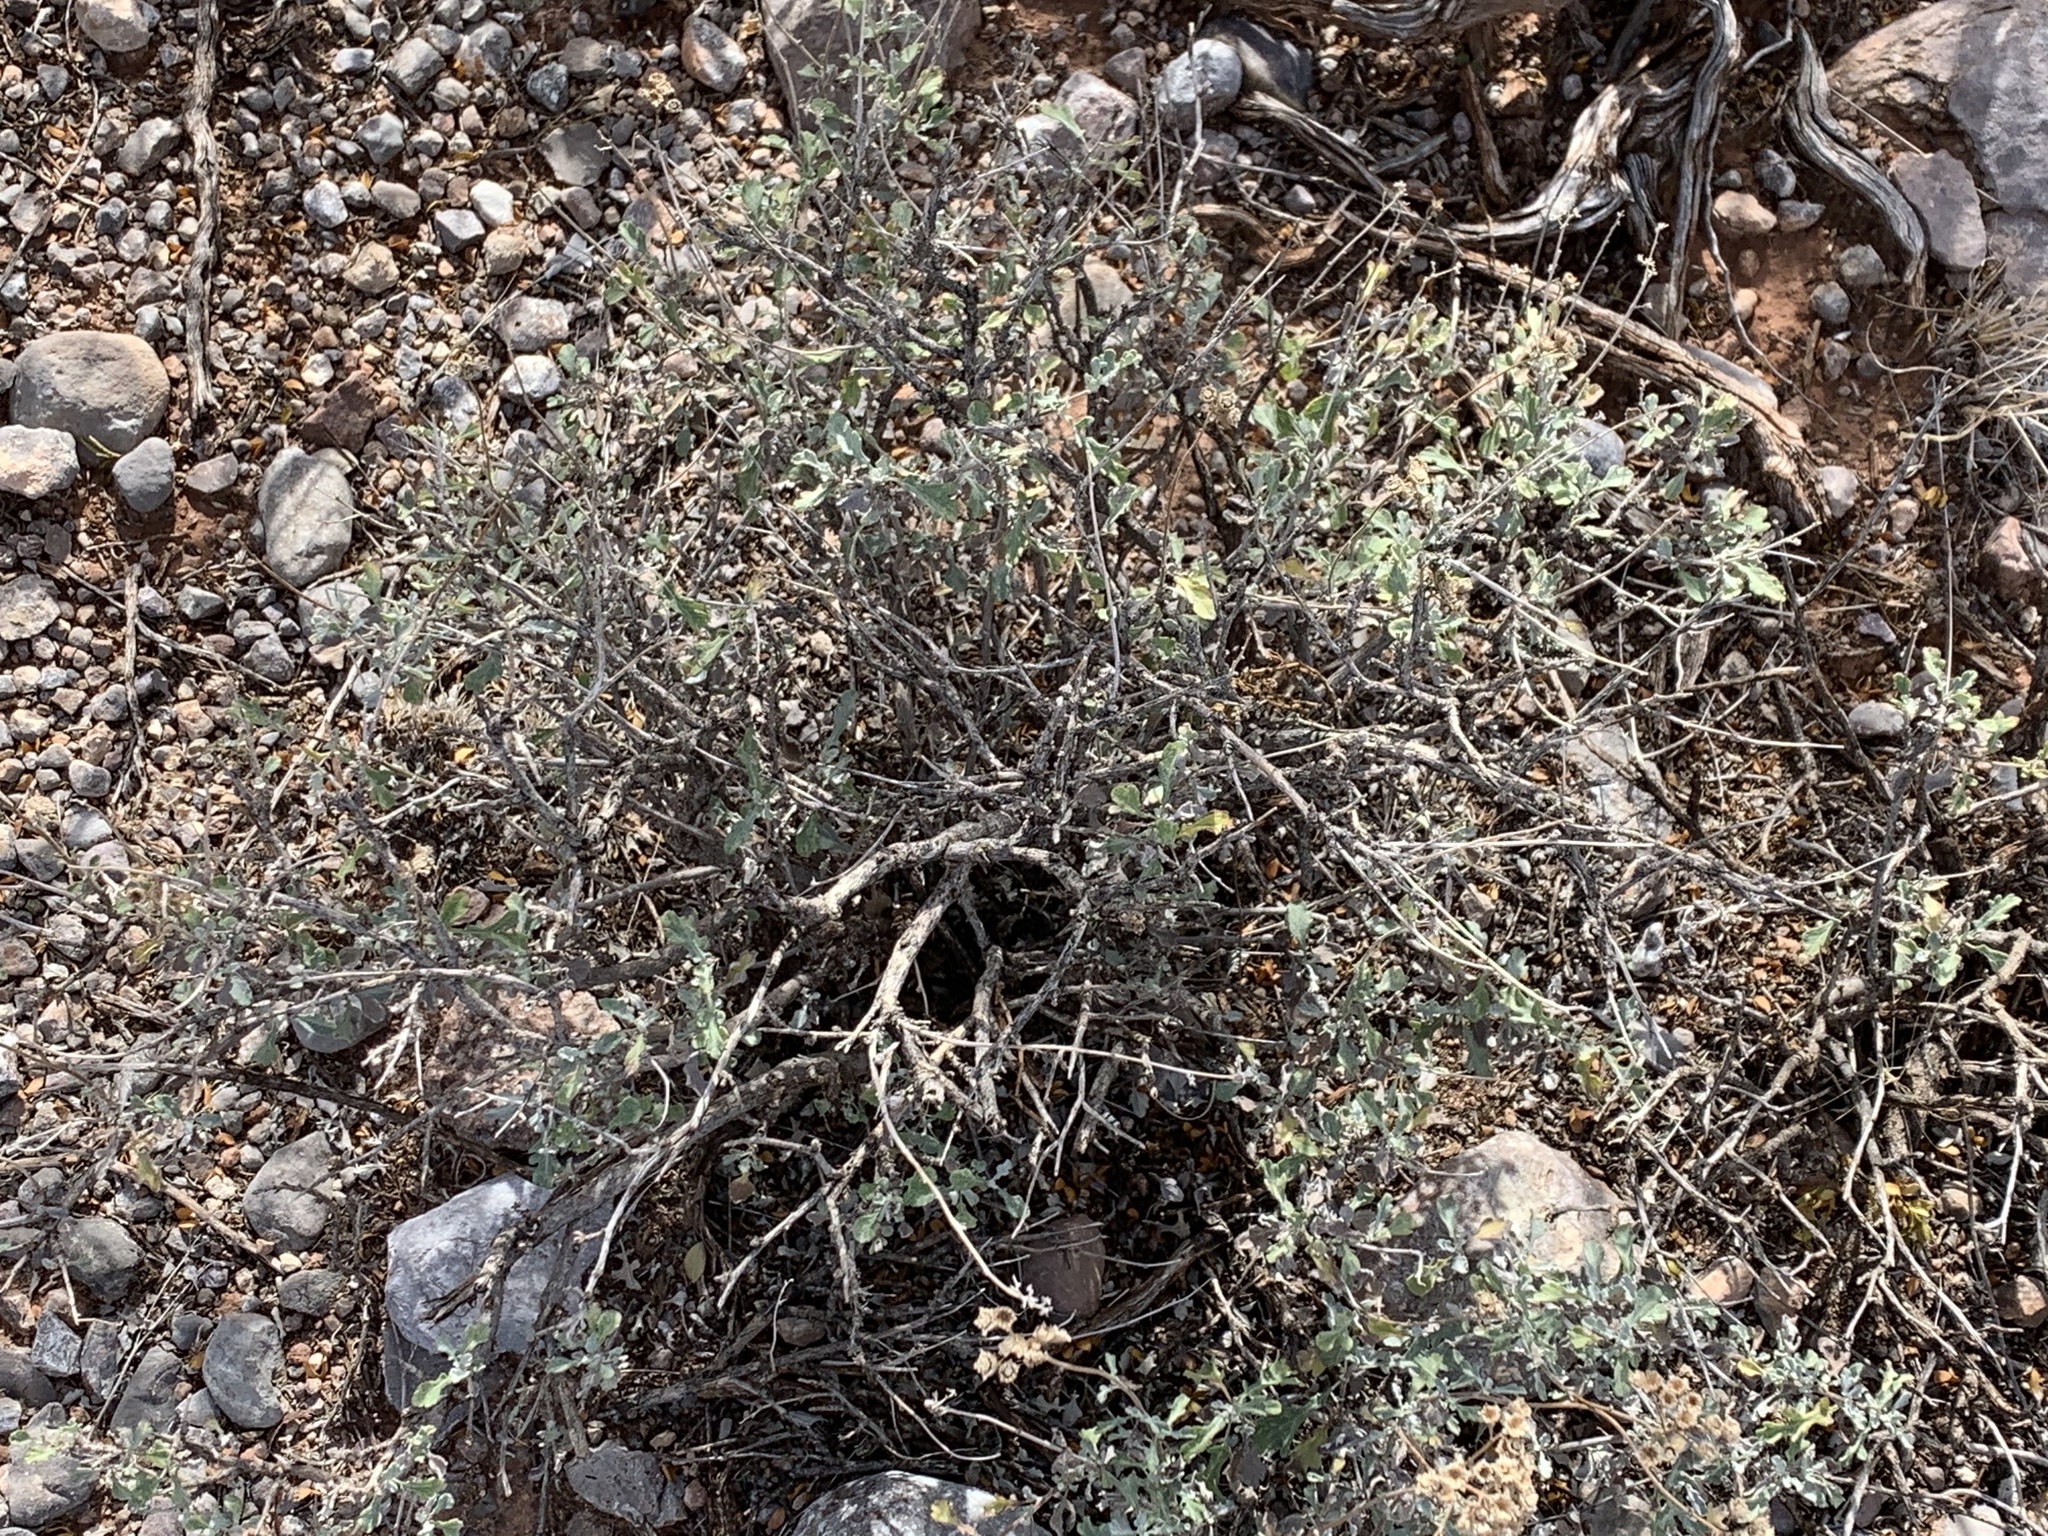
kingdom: Plantae
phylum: Tracheophyta
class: Magnoliopsida
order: Asterales
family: Asteraceae
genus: Parthenium
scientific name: Parthenium incanum
